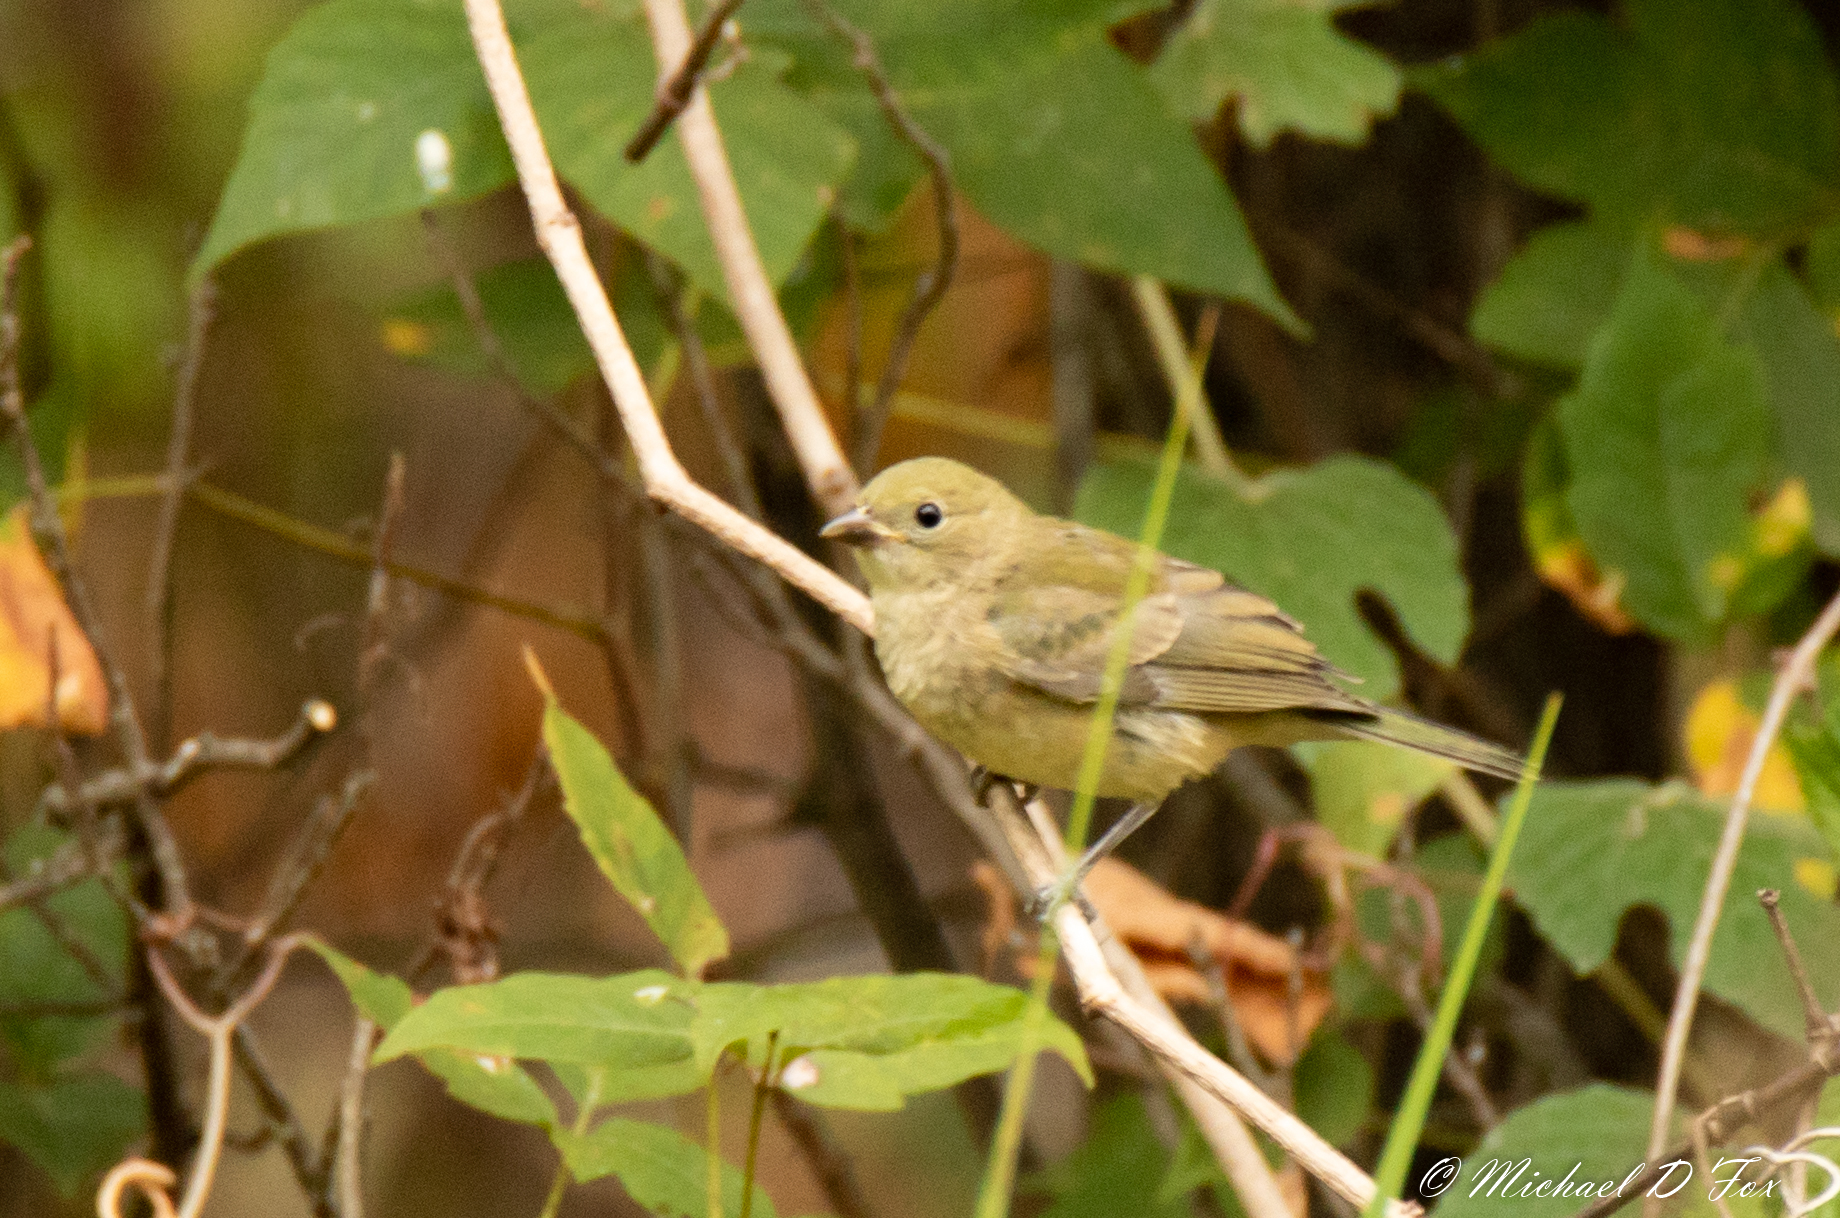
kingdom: Animalia
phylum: Chordata
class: Aves
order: Passeriformes
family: Cardinalidae
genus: Passerina
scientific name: Passerina ciris
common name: Painted bunting
